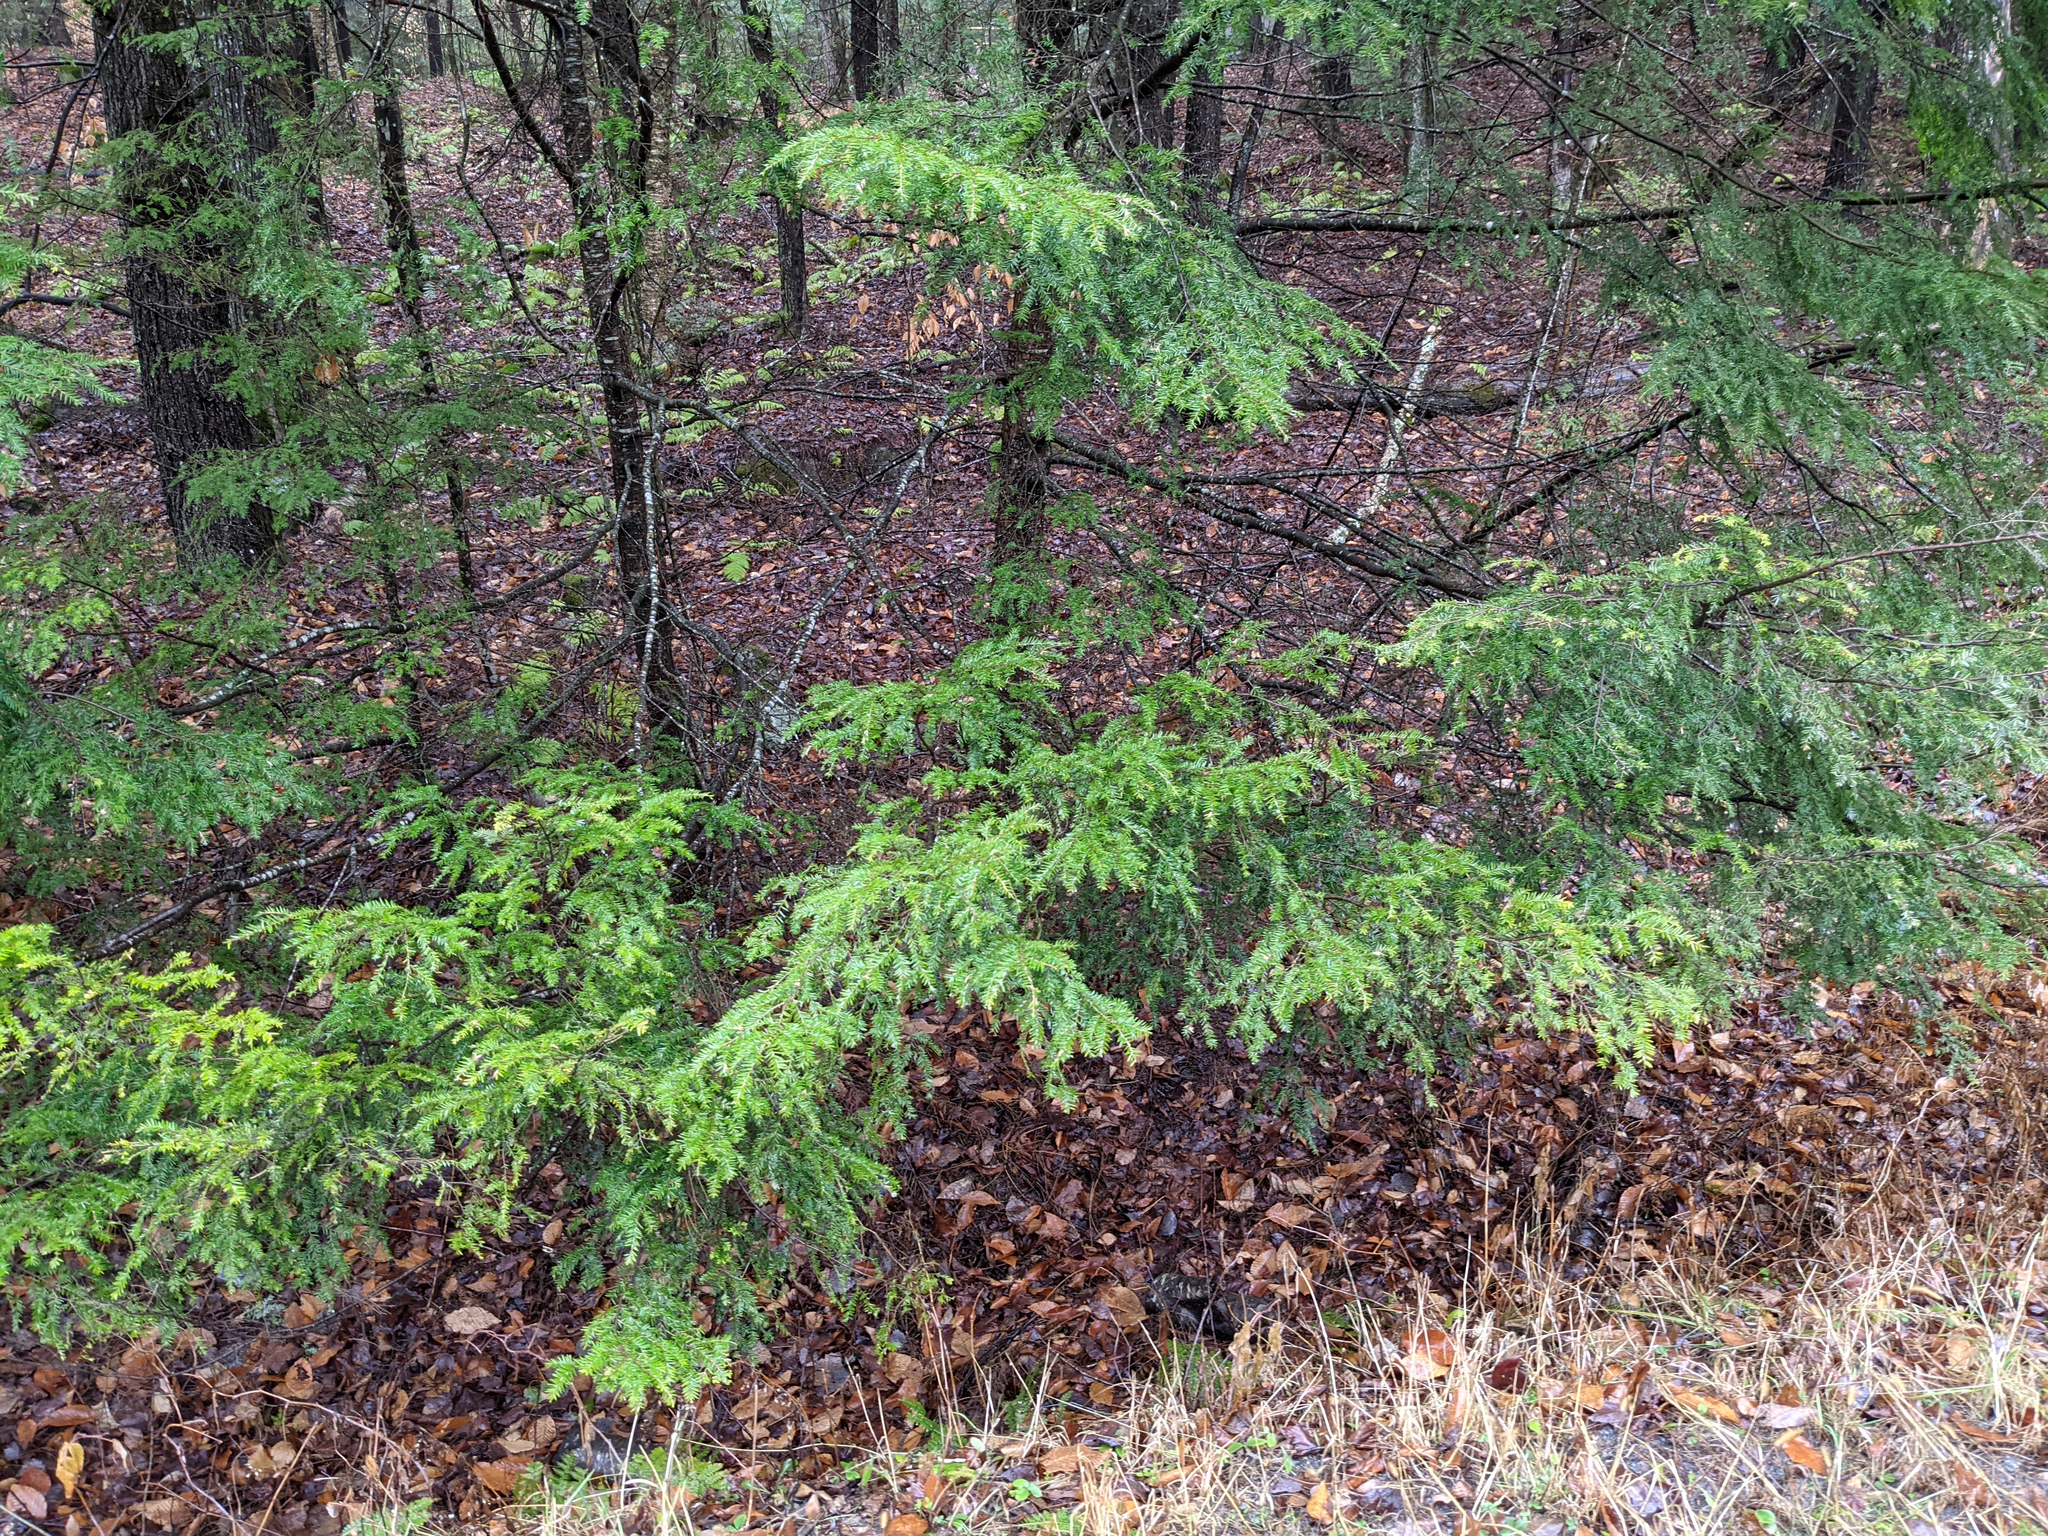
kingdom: Plantae
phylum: Tracheophyta
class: Pinopsida
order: Pinales
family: Pinaceae
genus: Tsuga
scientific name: Tsuga canadensis
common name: Eastern hemlock
